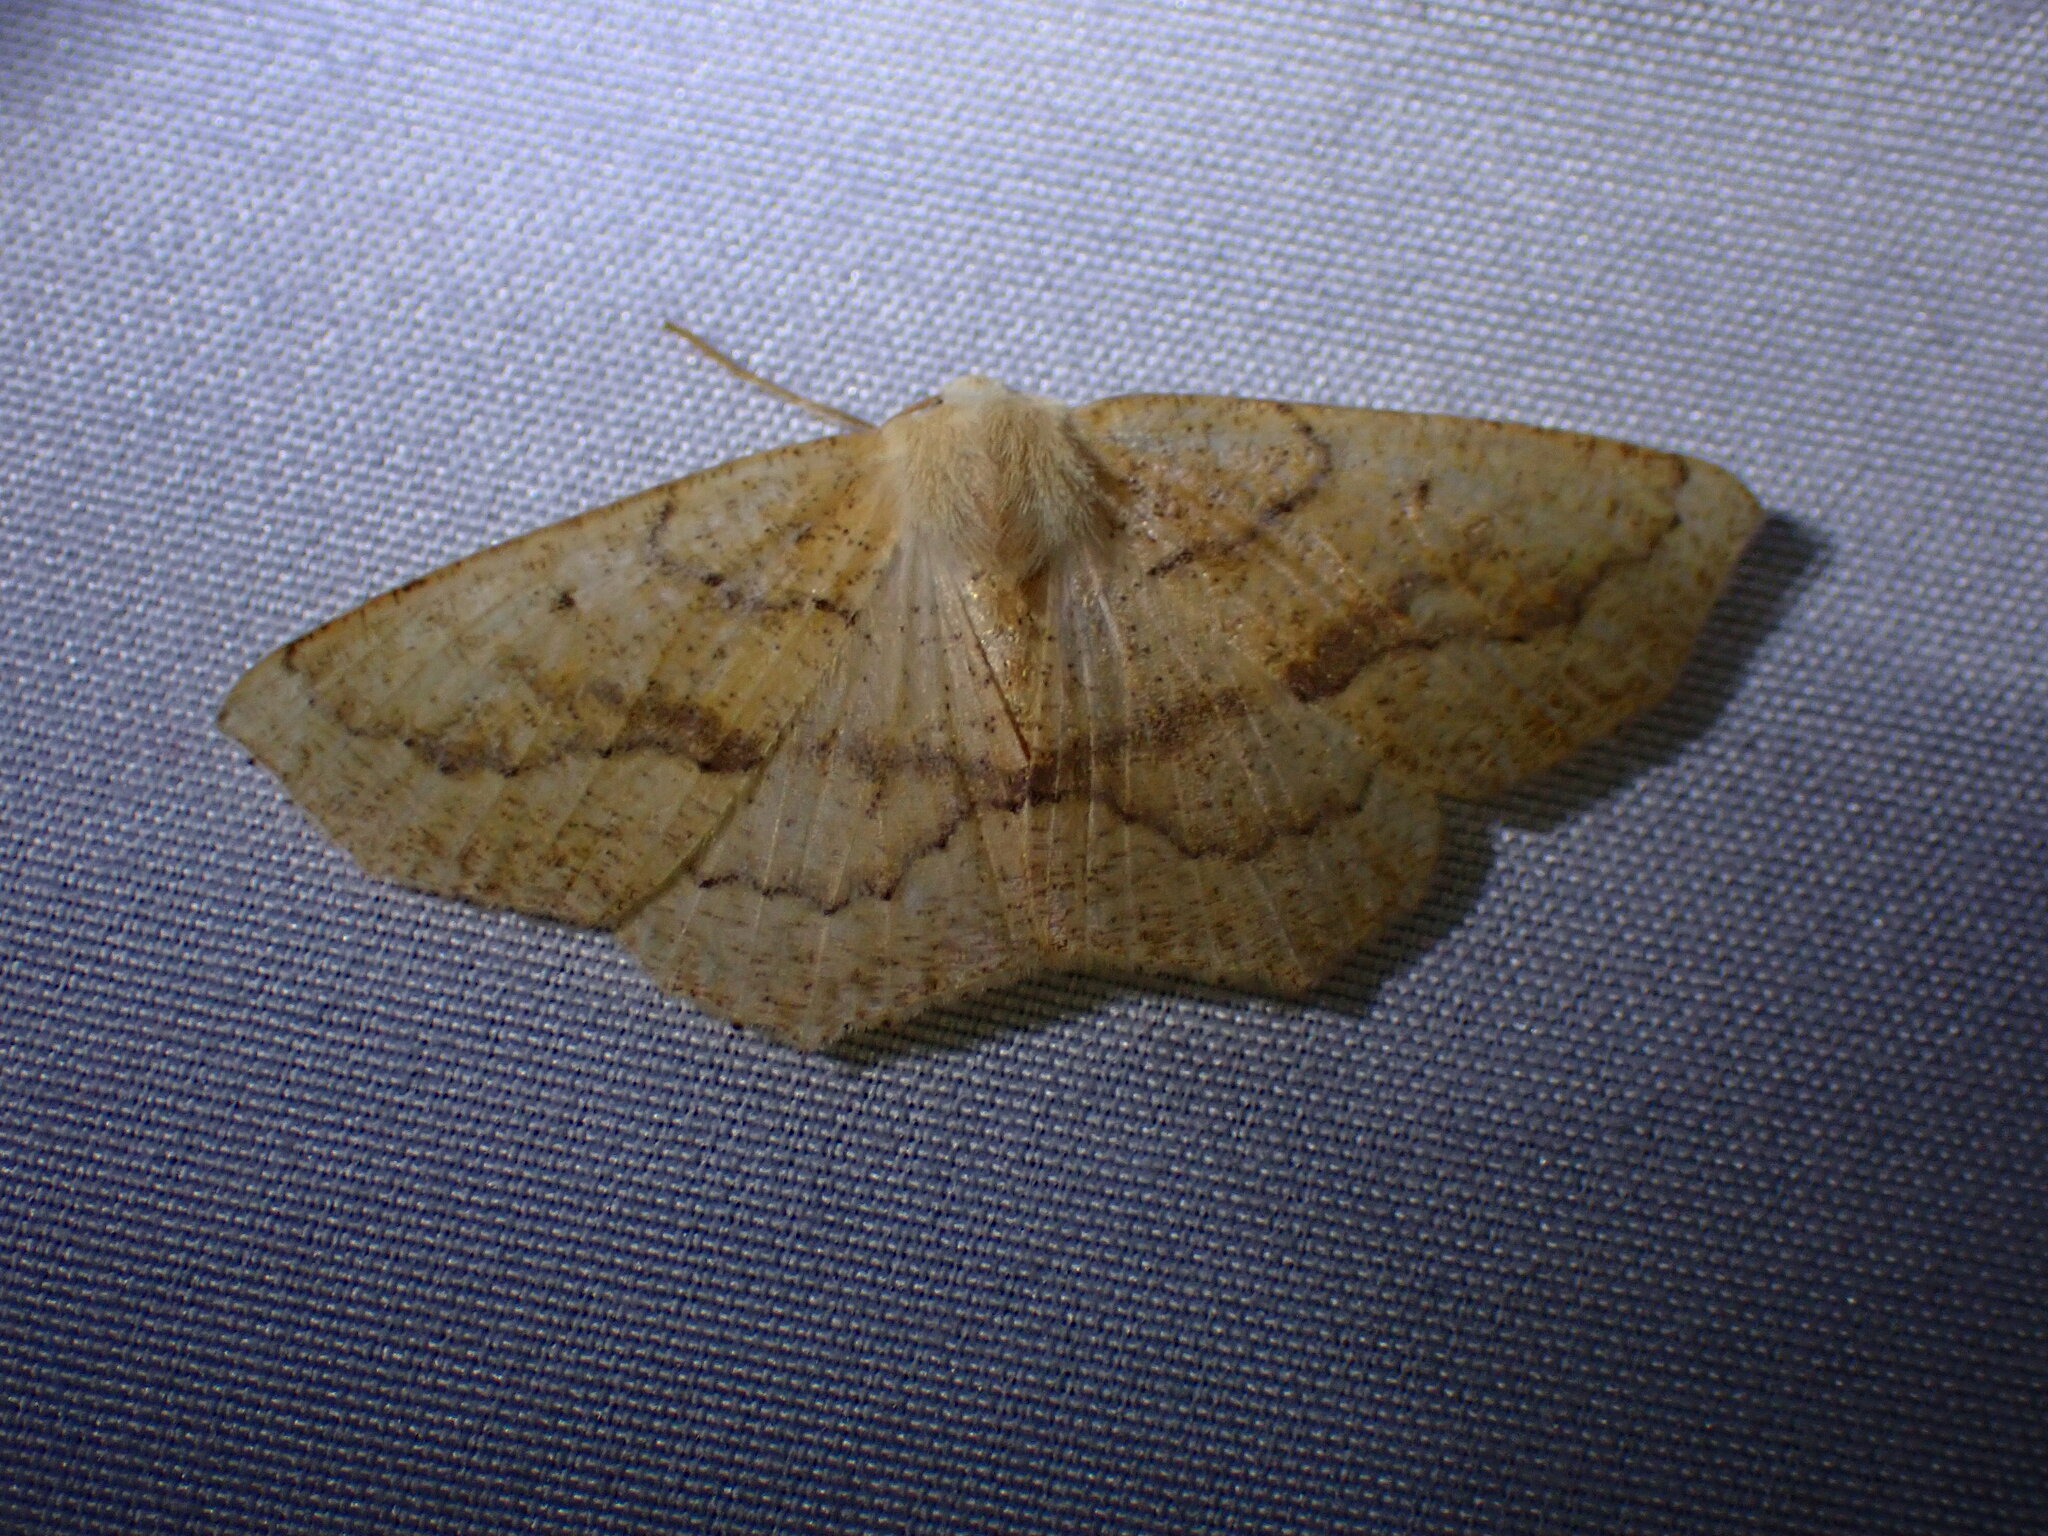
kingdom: Animalia
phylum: Arthropoda
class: Insecta
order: Lepidoptera
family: Geometridae
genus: Sabulodes
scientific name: Sabulodes aegrotata
